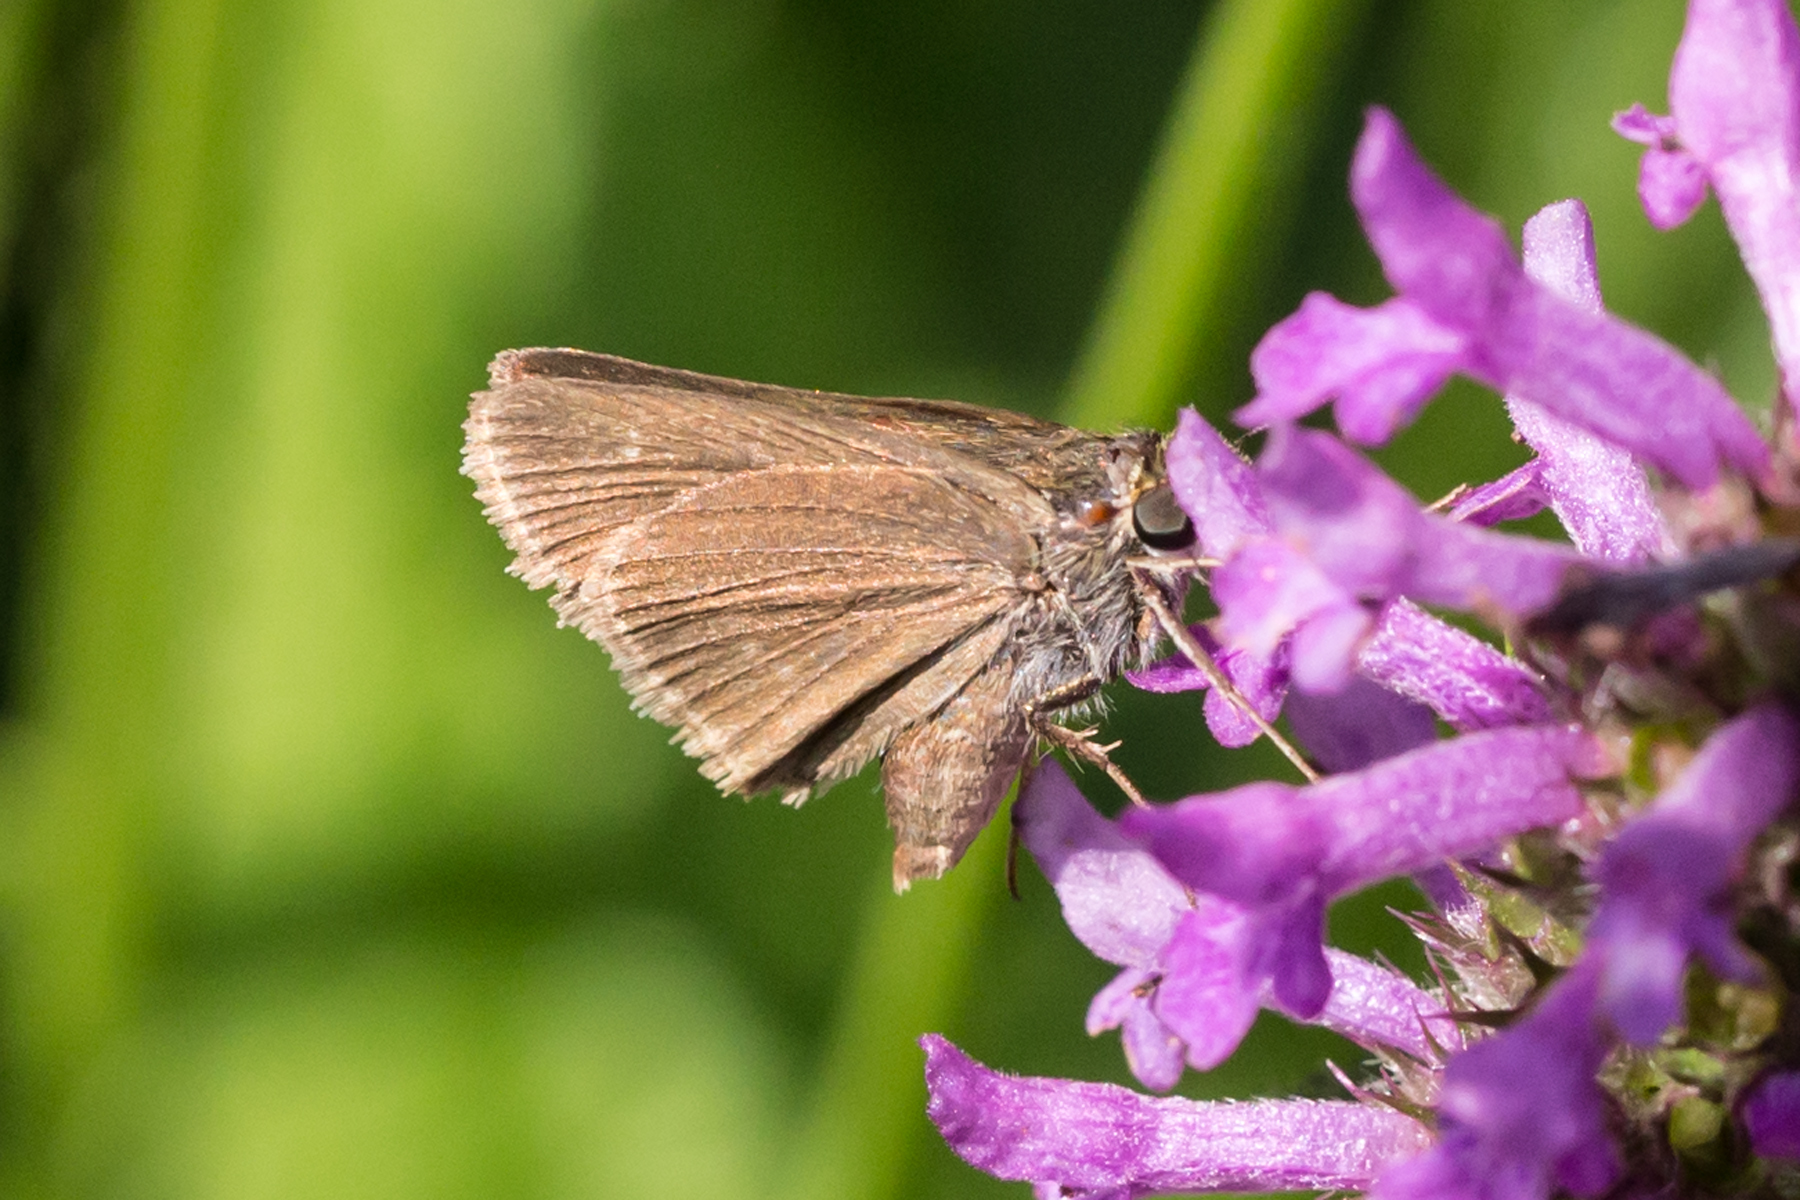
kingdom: Animalia
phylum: Arthropoda
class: Insecta
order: Lepidoptera
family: Hesperiidae
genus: Euphyes
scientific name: Euphyes vestris
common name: Dun skipper
